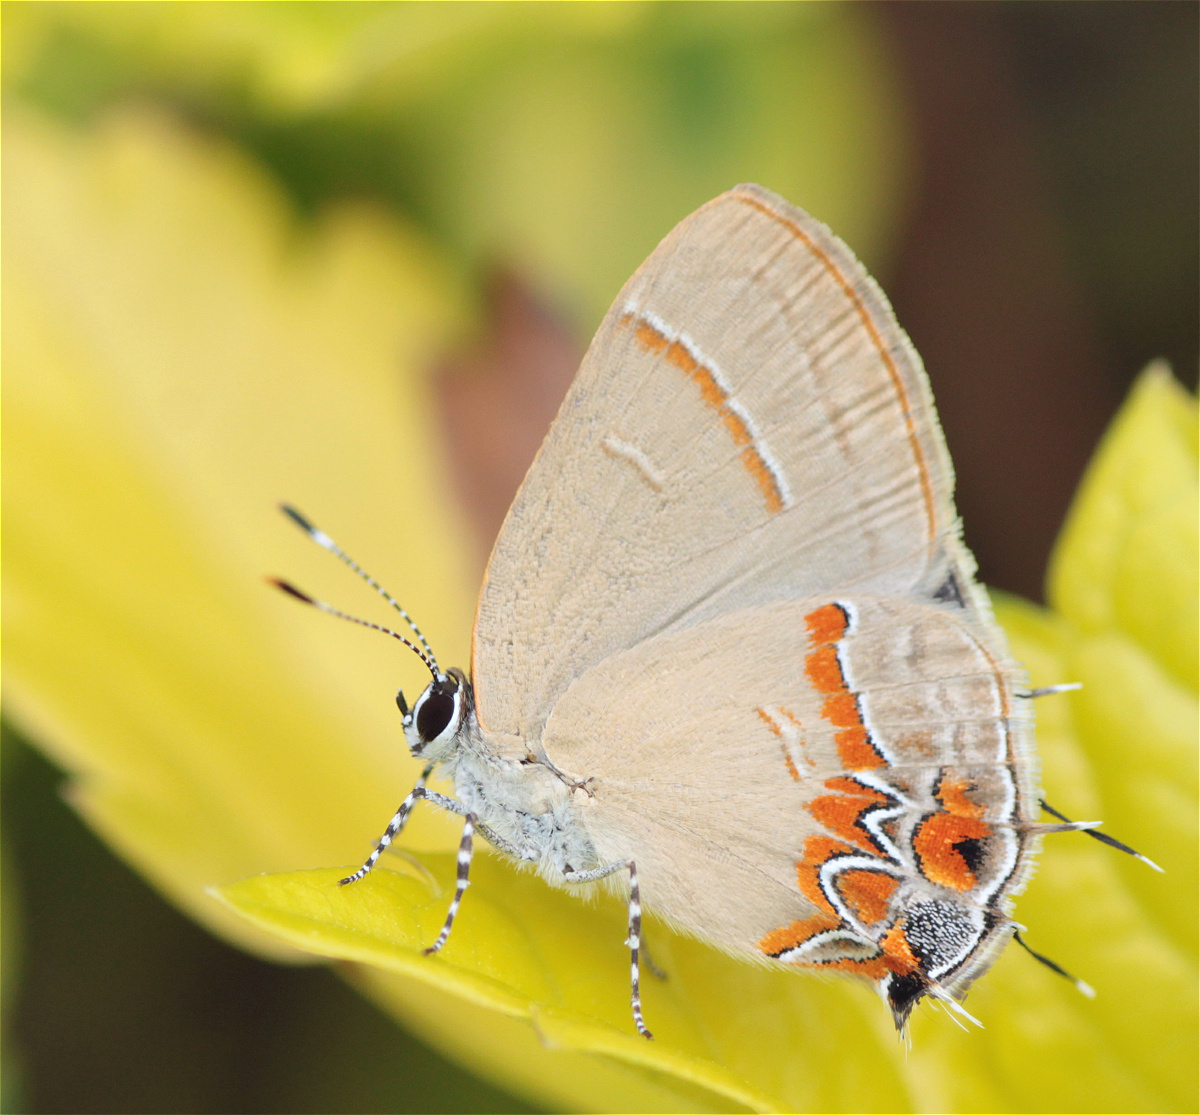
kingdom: Animalia
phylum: Arthropoda
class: Insecta
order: Lepidoptera
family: Lycaenidae
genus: Calycopis
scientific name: Calycopis isobeon
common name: Dusky-blue groundstreak
